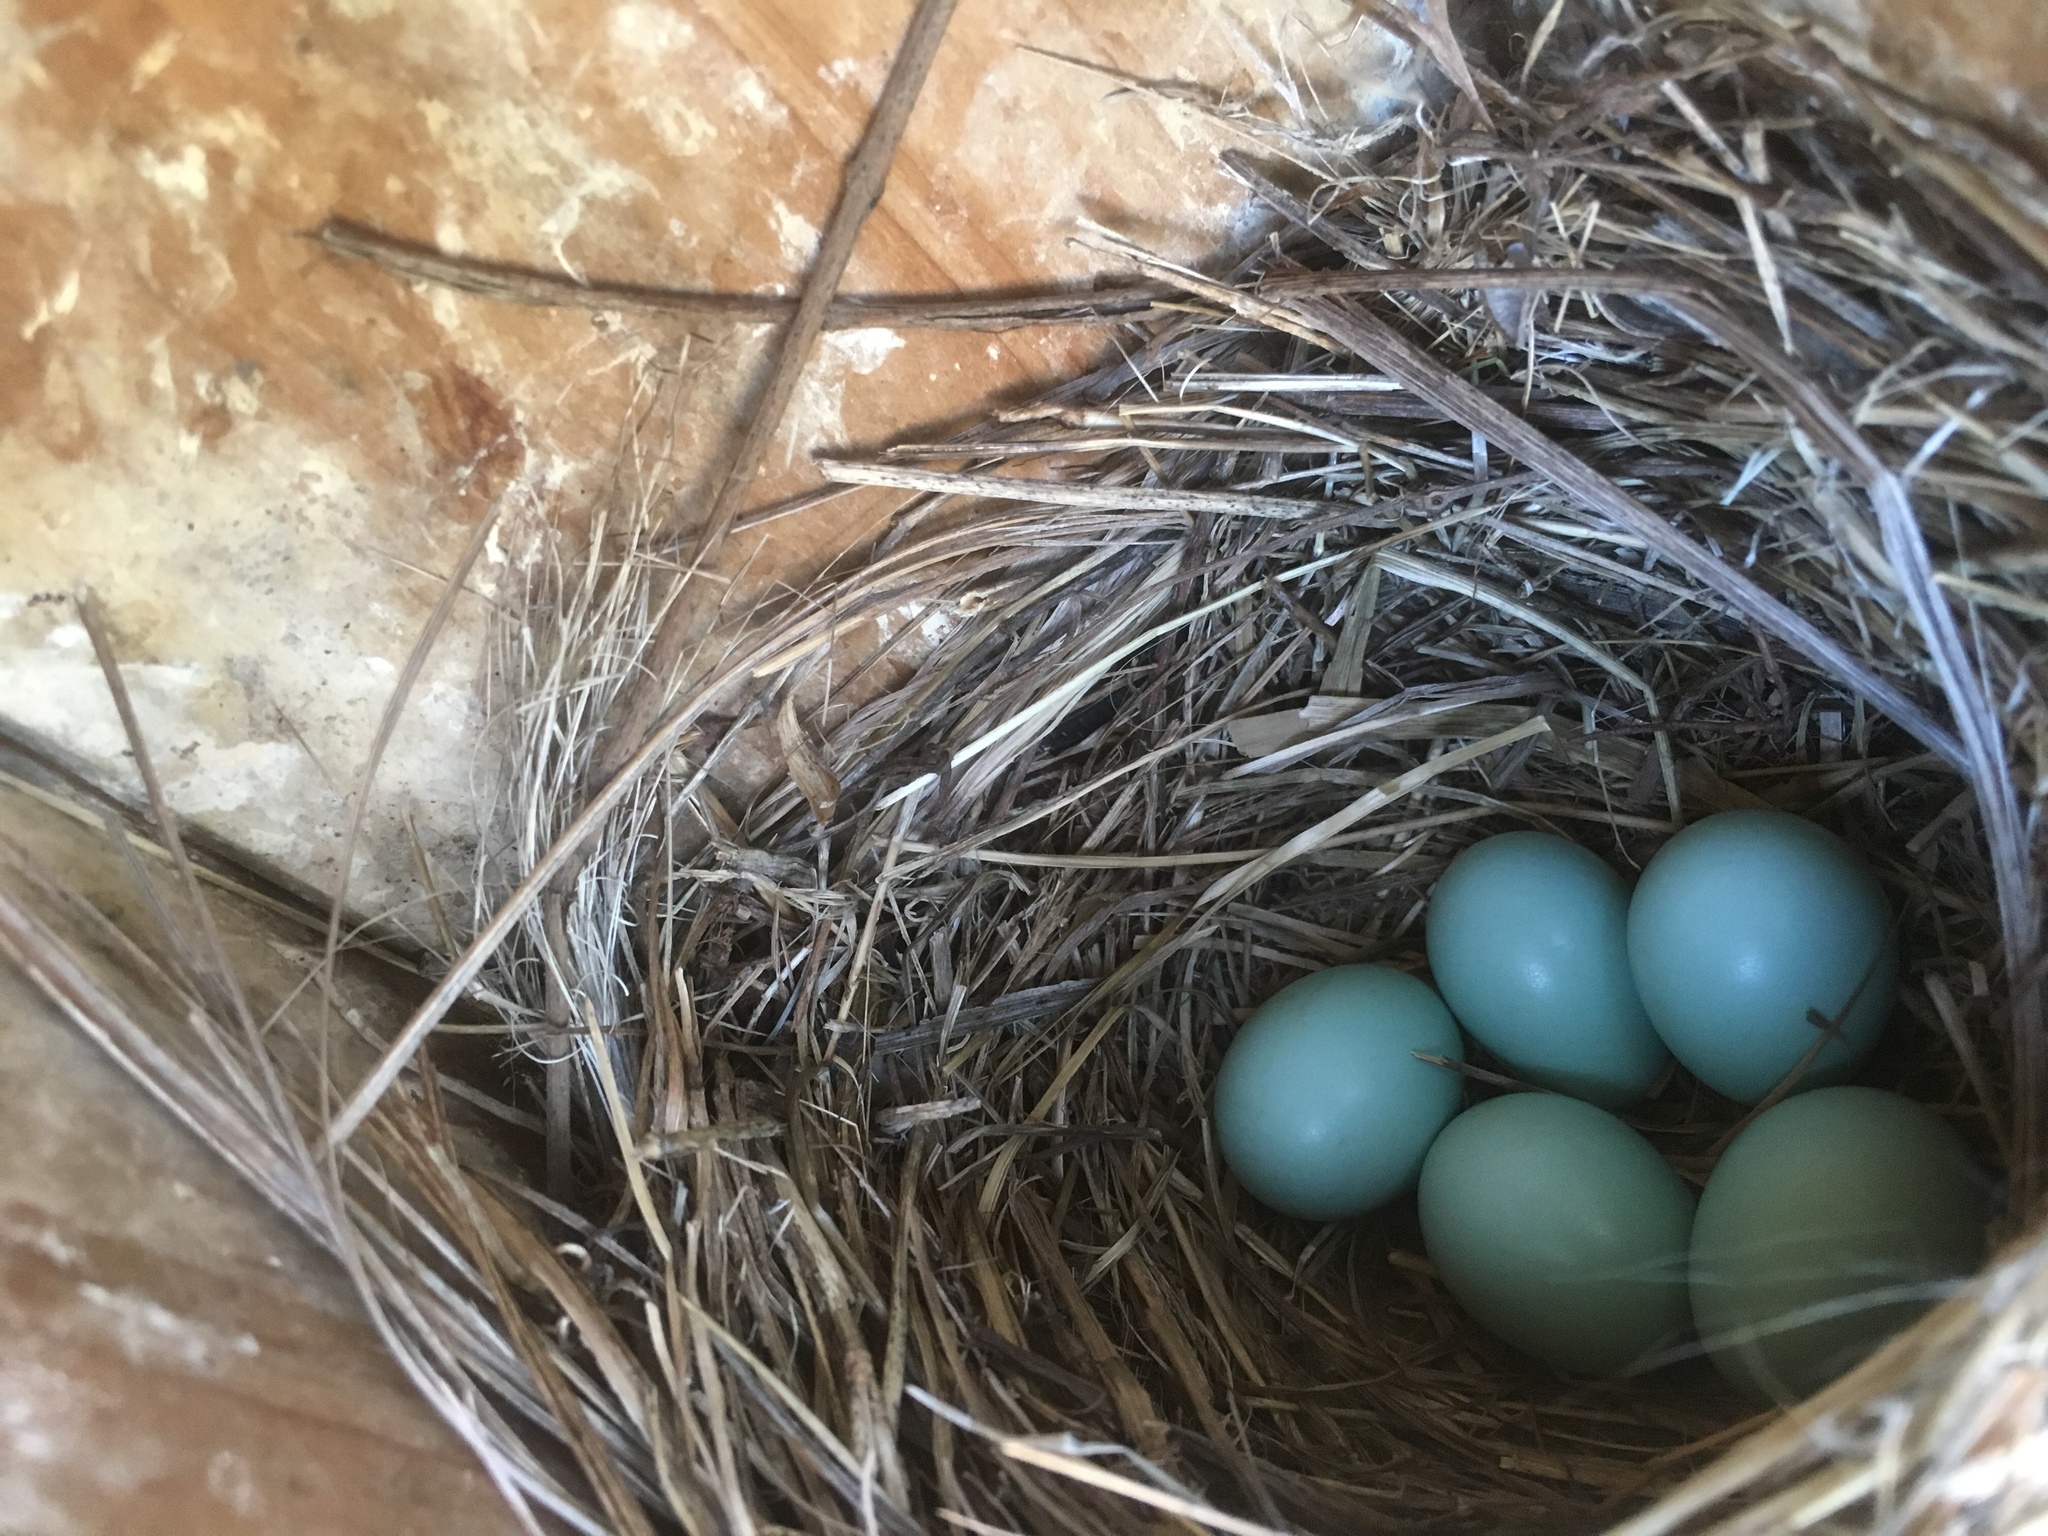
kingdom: Animalia
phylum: Chordata
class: Aves
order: Passeriformes
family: Turdidae
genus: Sialia
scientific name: Sialia sialis
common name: Eastern bluebird
